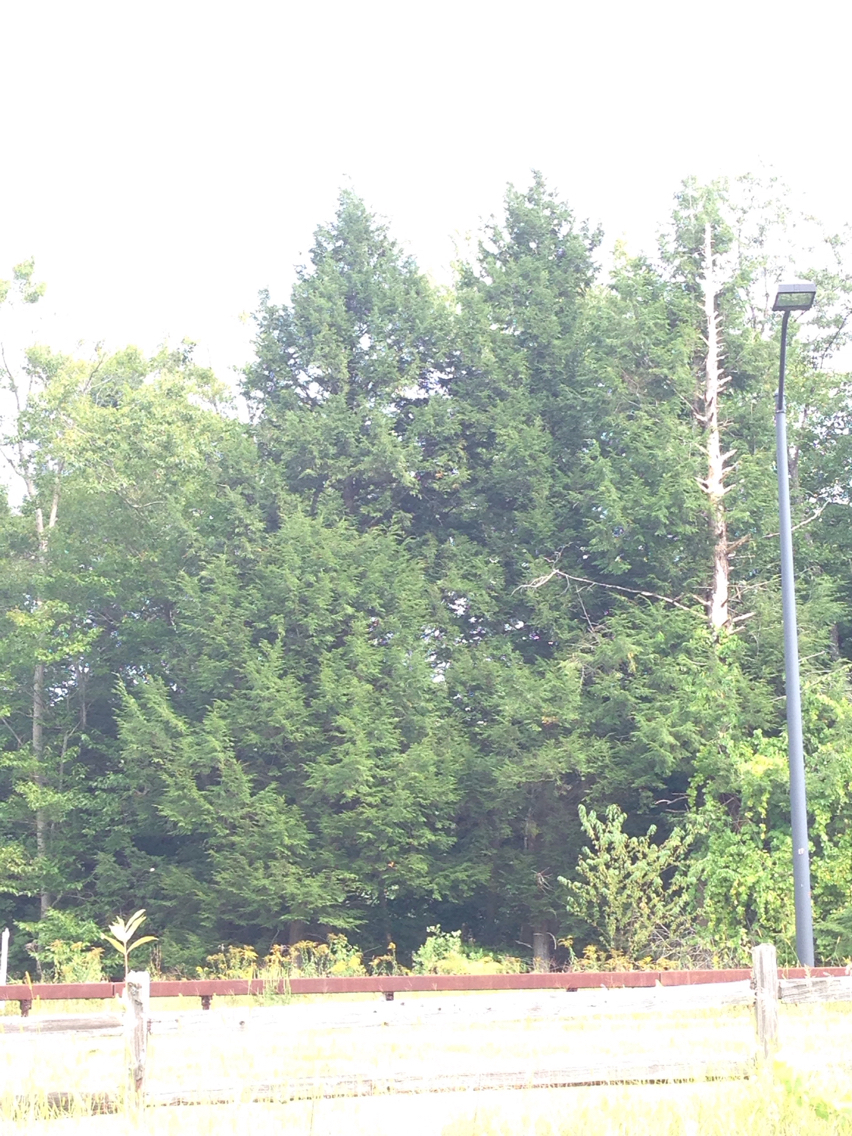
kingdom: Plantae
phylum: Tracheophyta
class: Pinopsida
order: Pinales
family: Pinaceae
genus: Tsuga
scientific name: Tsuga canadensis
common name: Eastern hemlock
